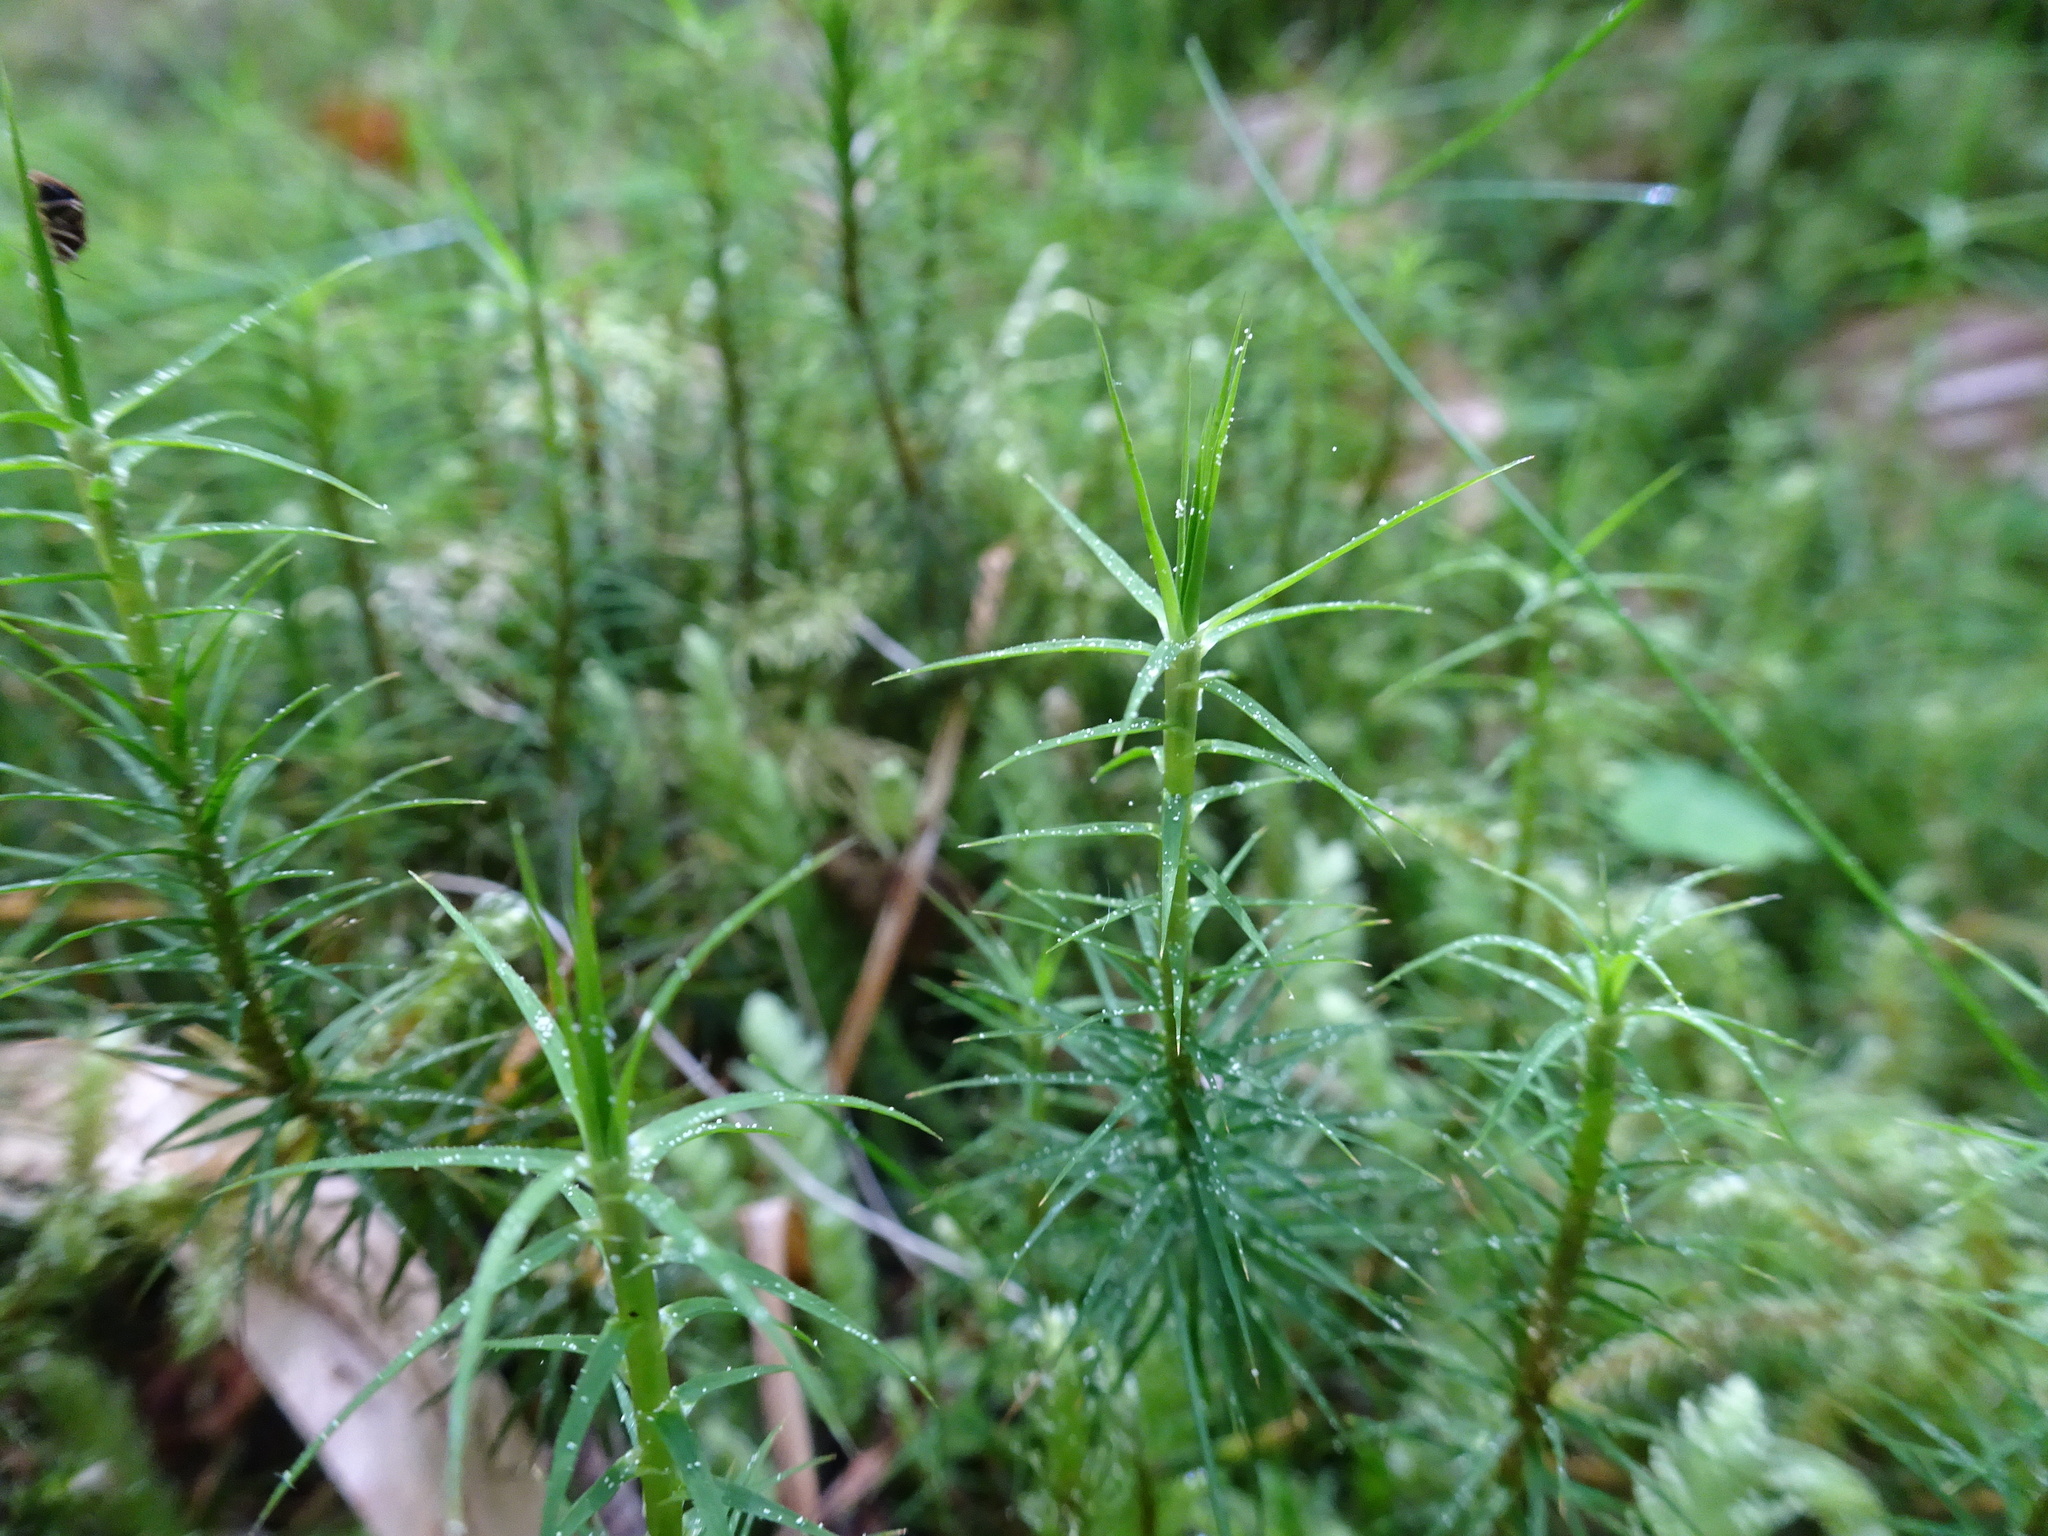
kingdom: Plantae
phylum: Bryophyta
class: Polytrichopsida
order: Polytrichales
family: Polytrichaceae
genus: Polytrichum
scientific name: Polytrichum commune
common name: Common haircap
